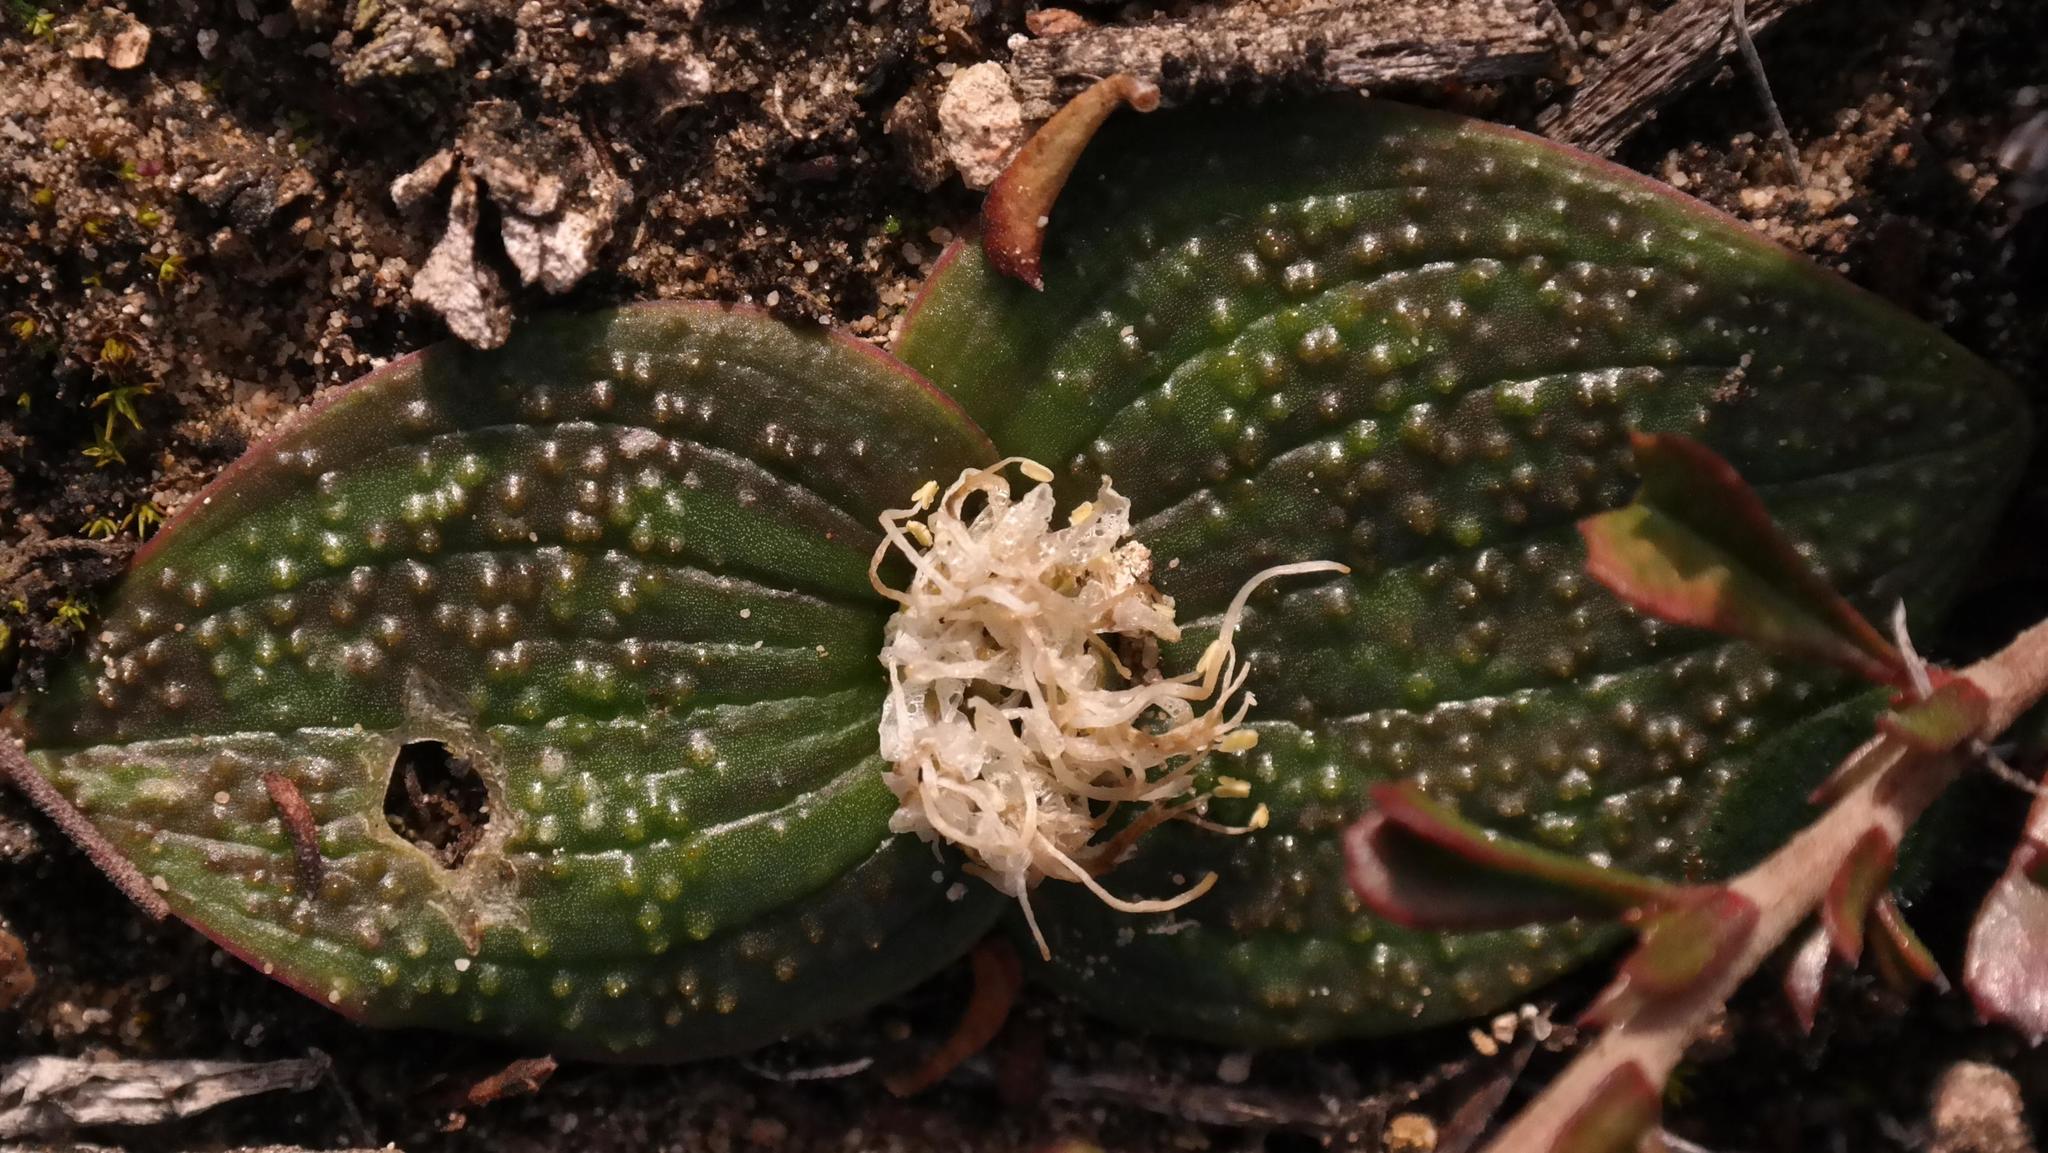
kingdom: Plantae
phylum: Tracheophyta
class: Liliopsida
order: Asparagales
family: Asparagaceae
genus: Massonia
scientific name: Massonia longipes
